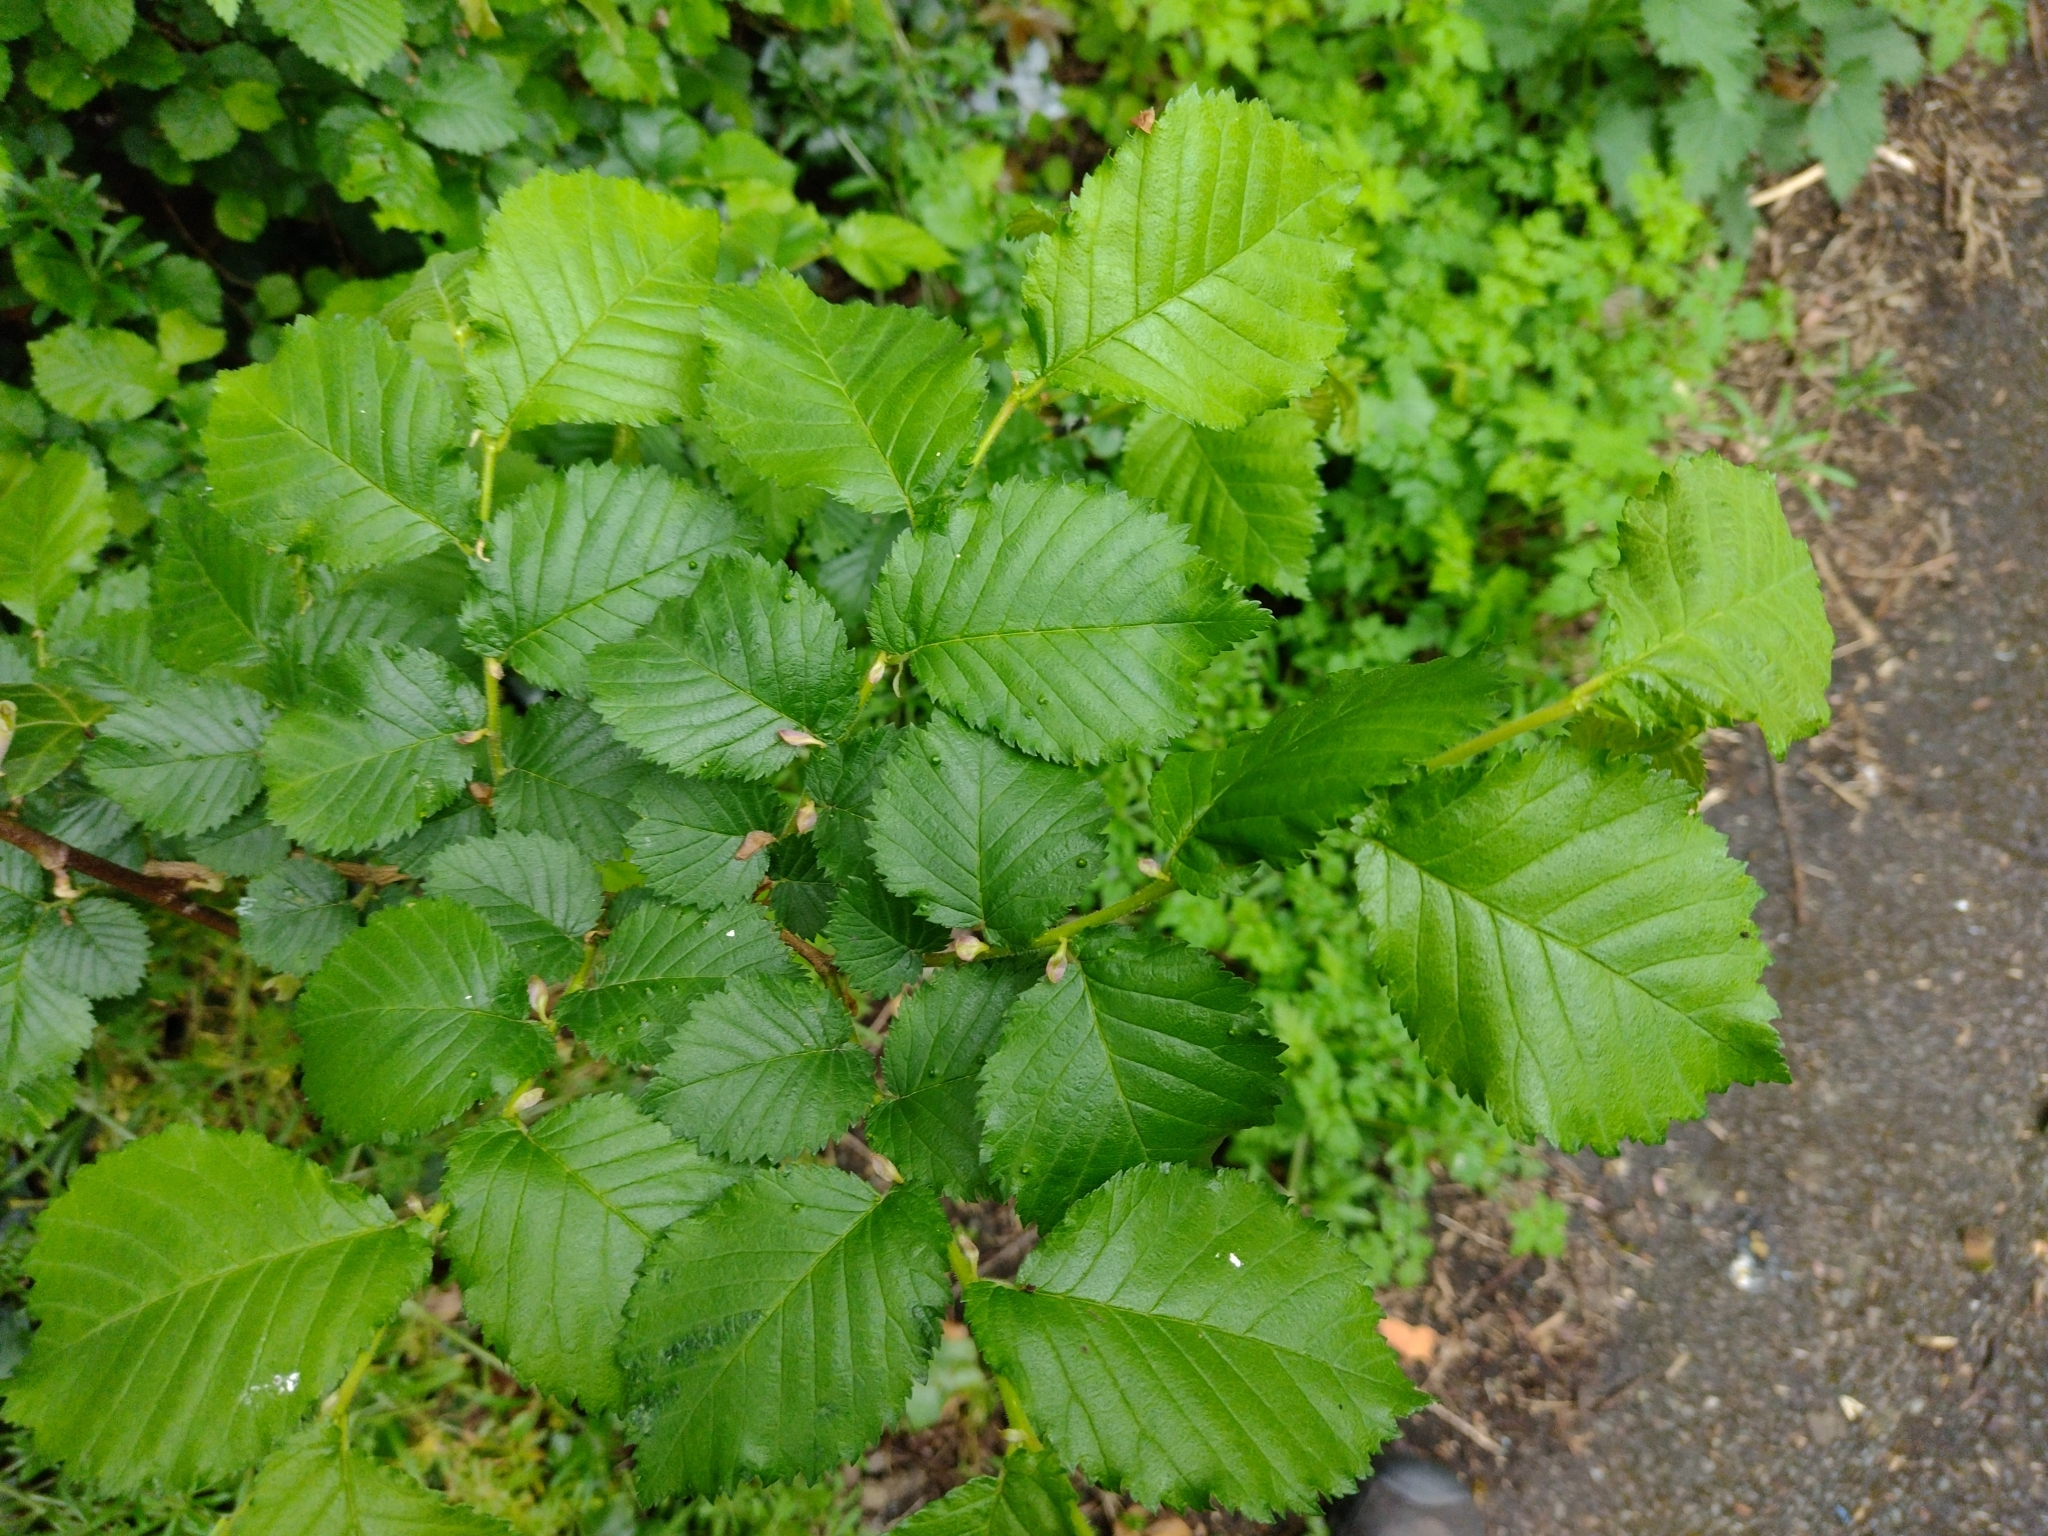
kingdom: Plantae
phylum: Tracheophyta
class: Magnoliopsida
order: Rosales
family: Ulmaceae
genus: Ulmus
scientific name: Ulmus minor
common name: Small-leaved elm
